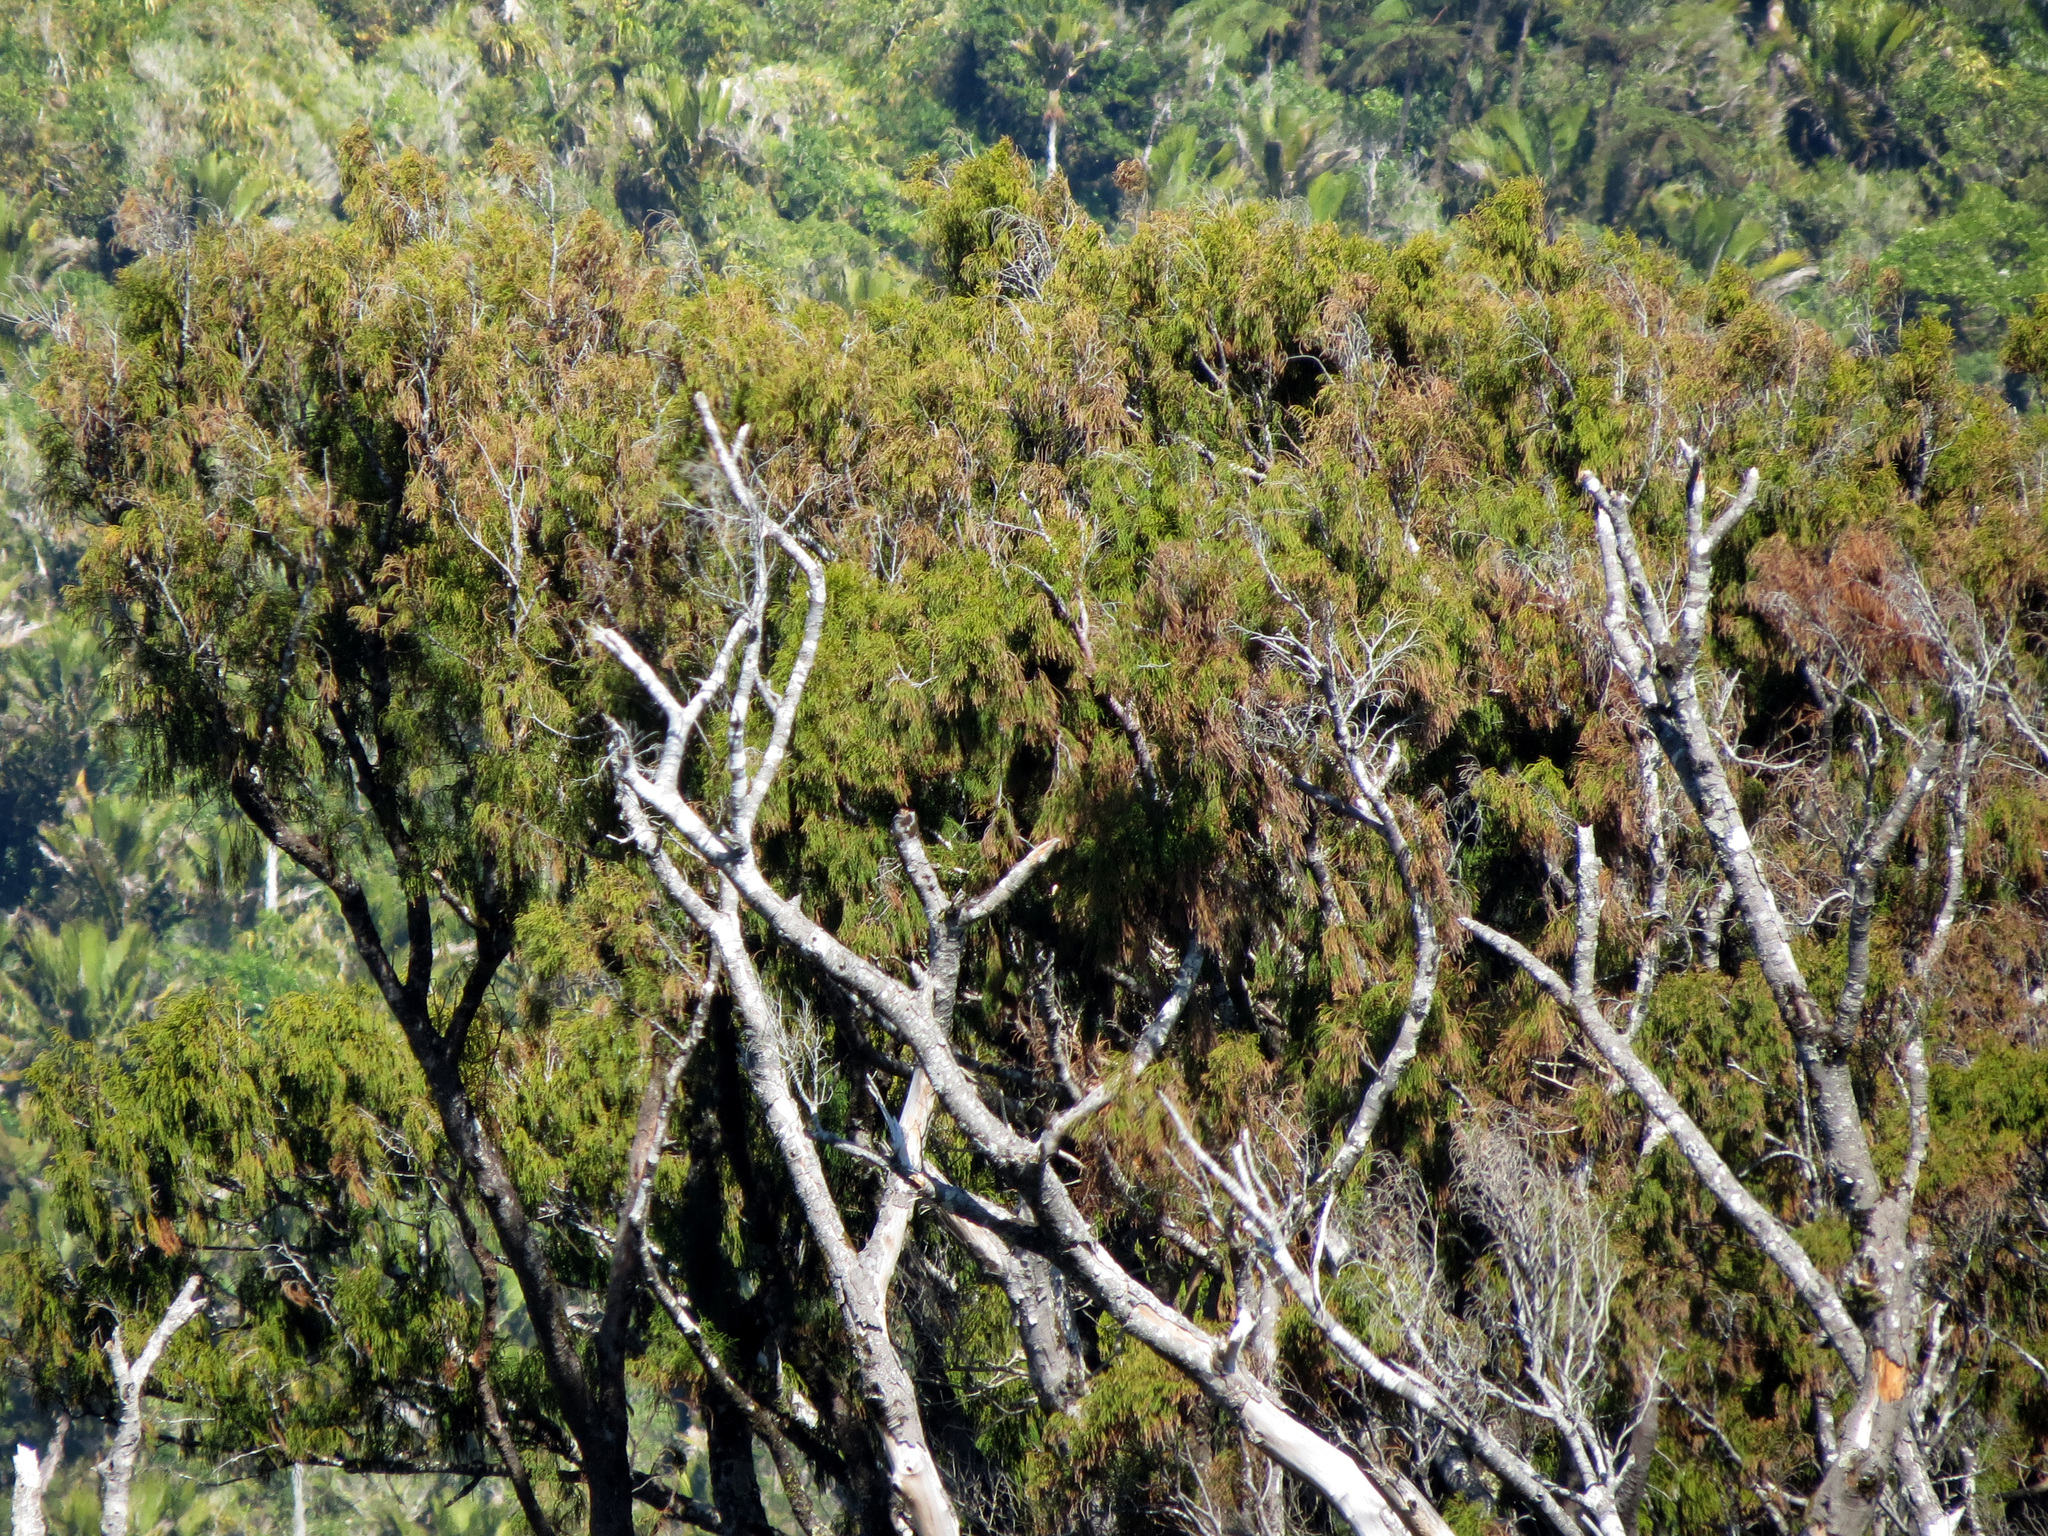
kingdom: Plantae
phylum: Tracheophyta
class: Pinopsida
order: Pinales
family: Podocarpaceae
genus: Dacrydium
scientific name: Dacrydium cupressinum
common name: Red pine
